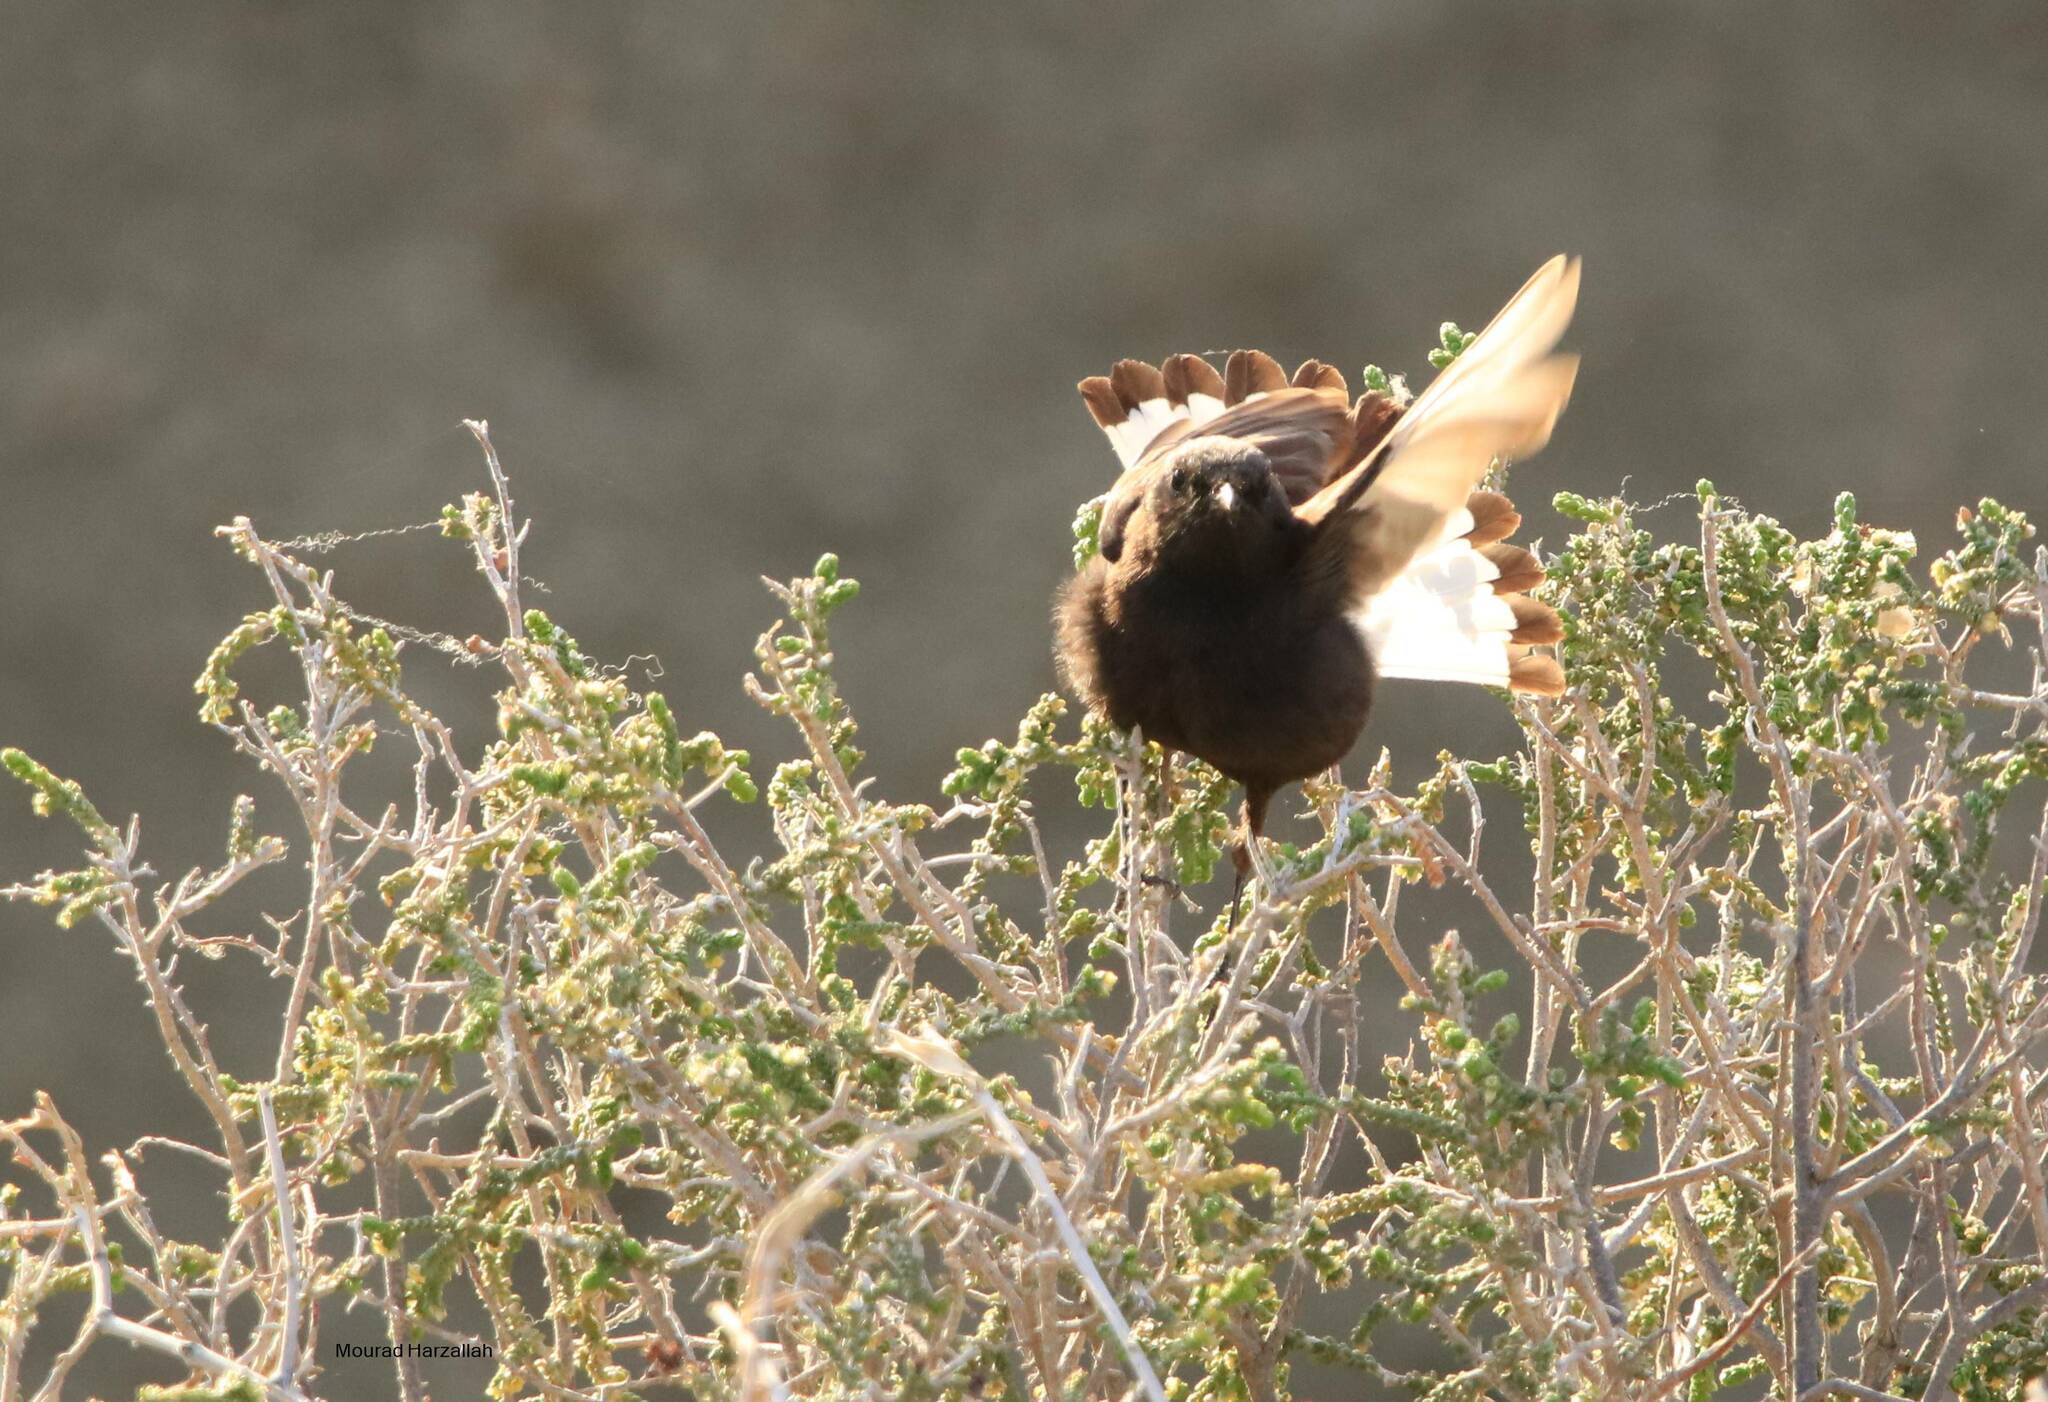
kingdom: Animalia
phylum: Chordata
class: Aves
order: Passeriformes
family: Muscicapidae
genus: Oenanthe
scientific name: Oenanthe leucura
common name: Black wheatear
